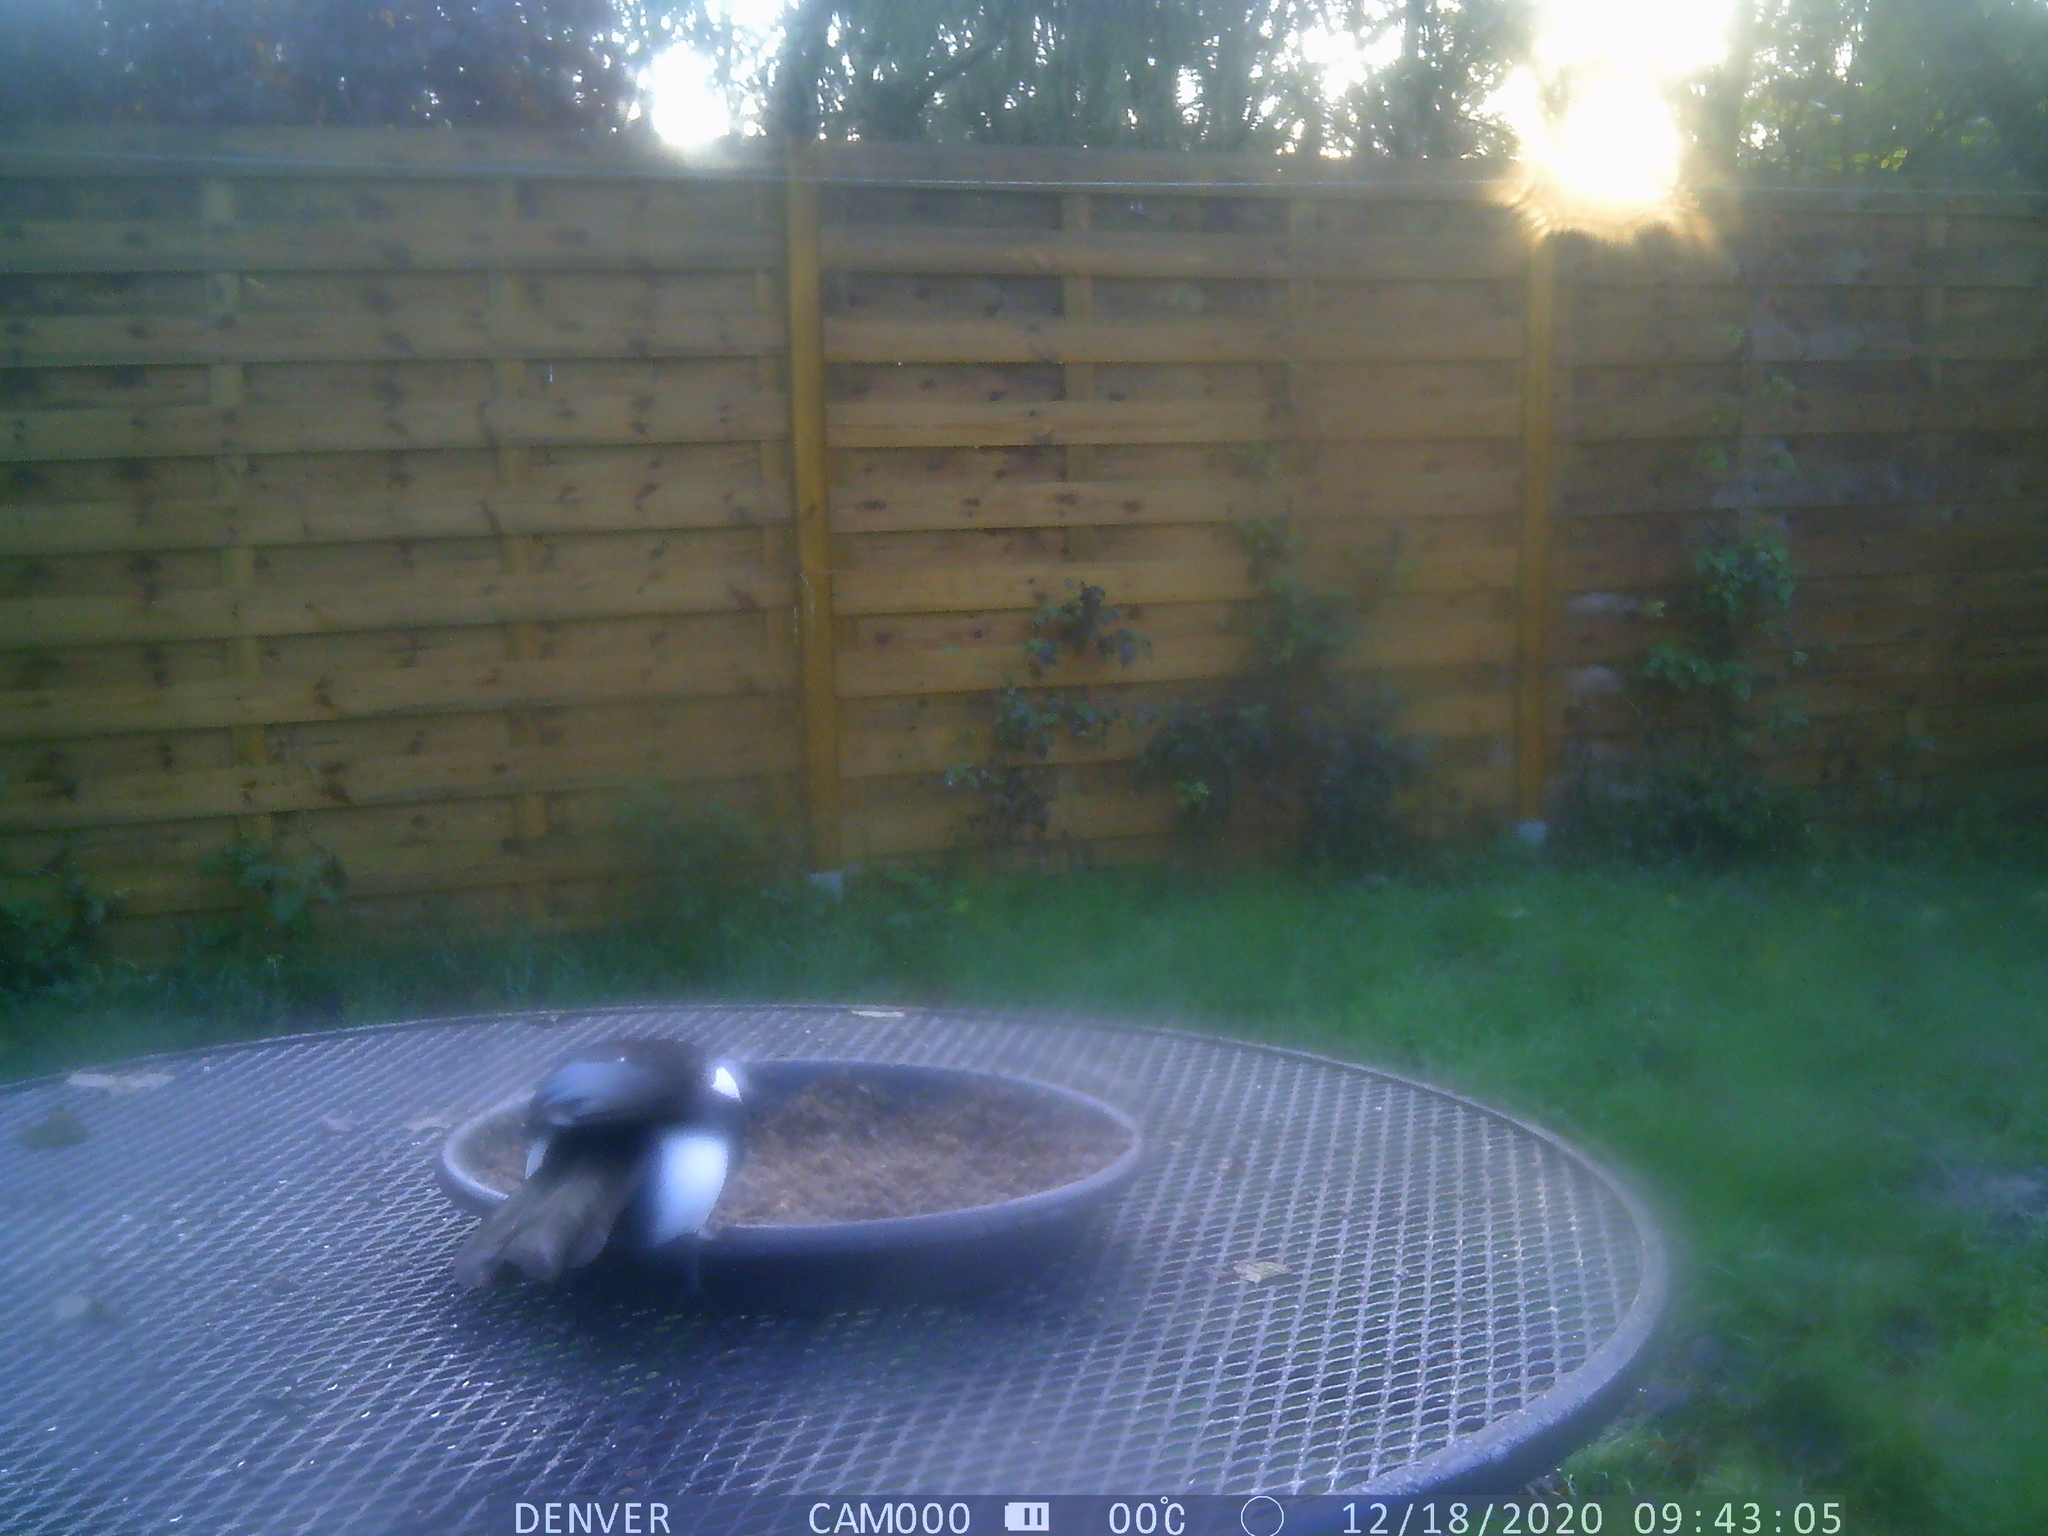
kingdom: Animalia
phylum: Chordata
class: Aves
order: Passeriformes
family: Corvidae
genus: Pica
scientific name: Pica pica
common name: Eurasian magpie
